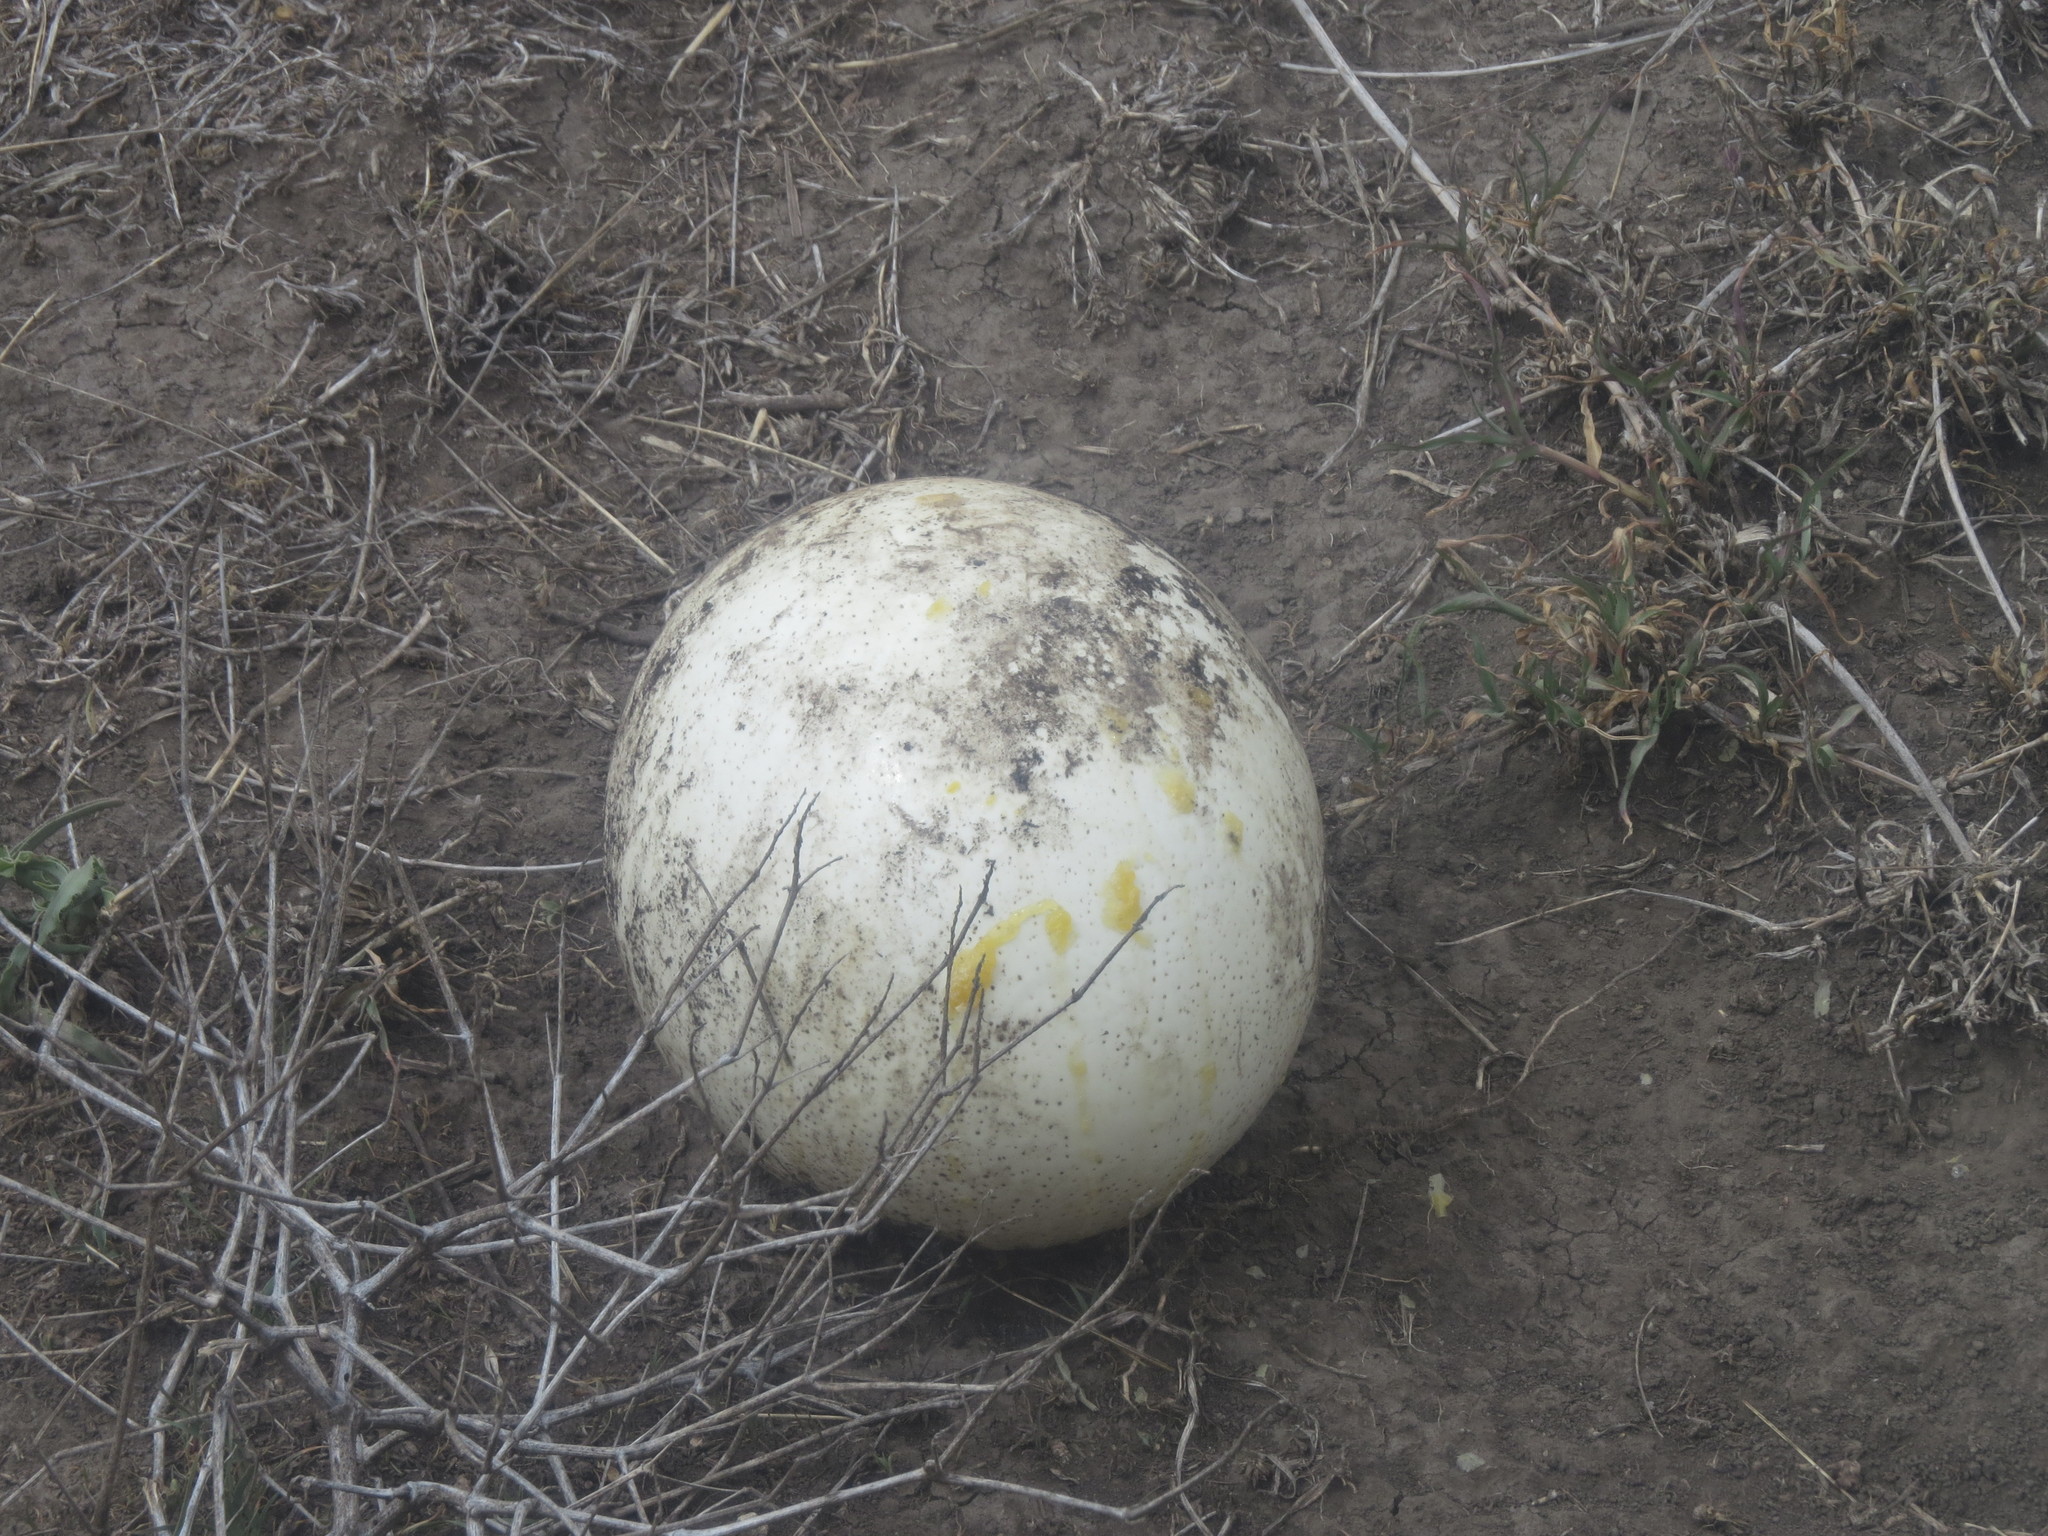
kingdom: Animalia
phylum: Chordata
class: Aves
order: Struthioniformes
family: Struthionidae
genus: Struthio
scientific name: Struthio camelus
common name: Common ostrich
